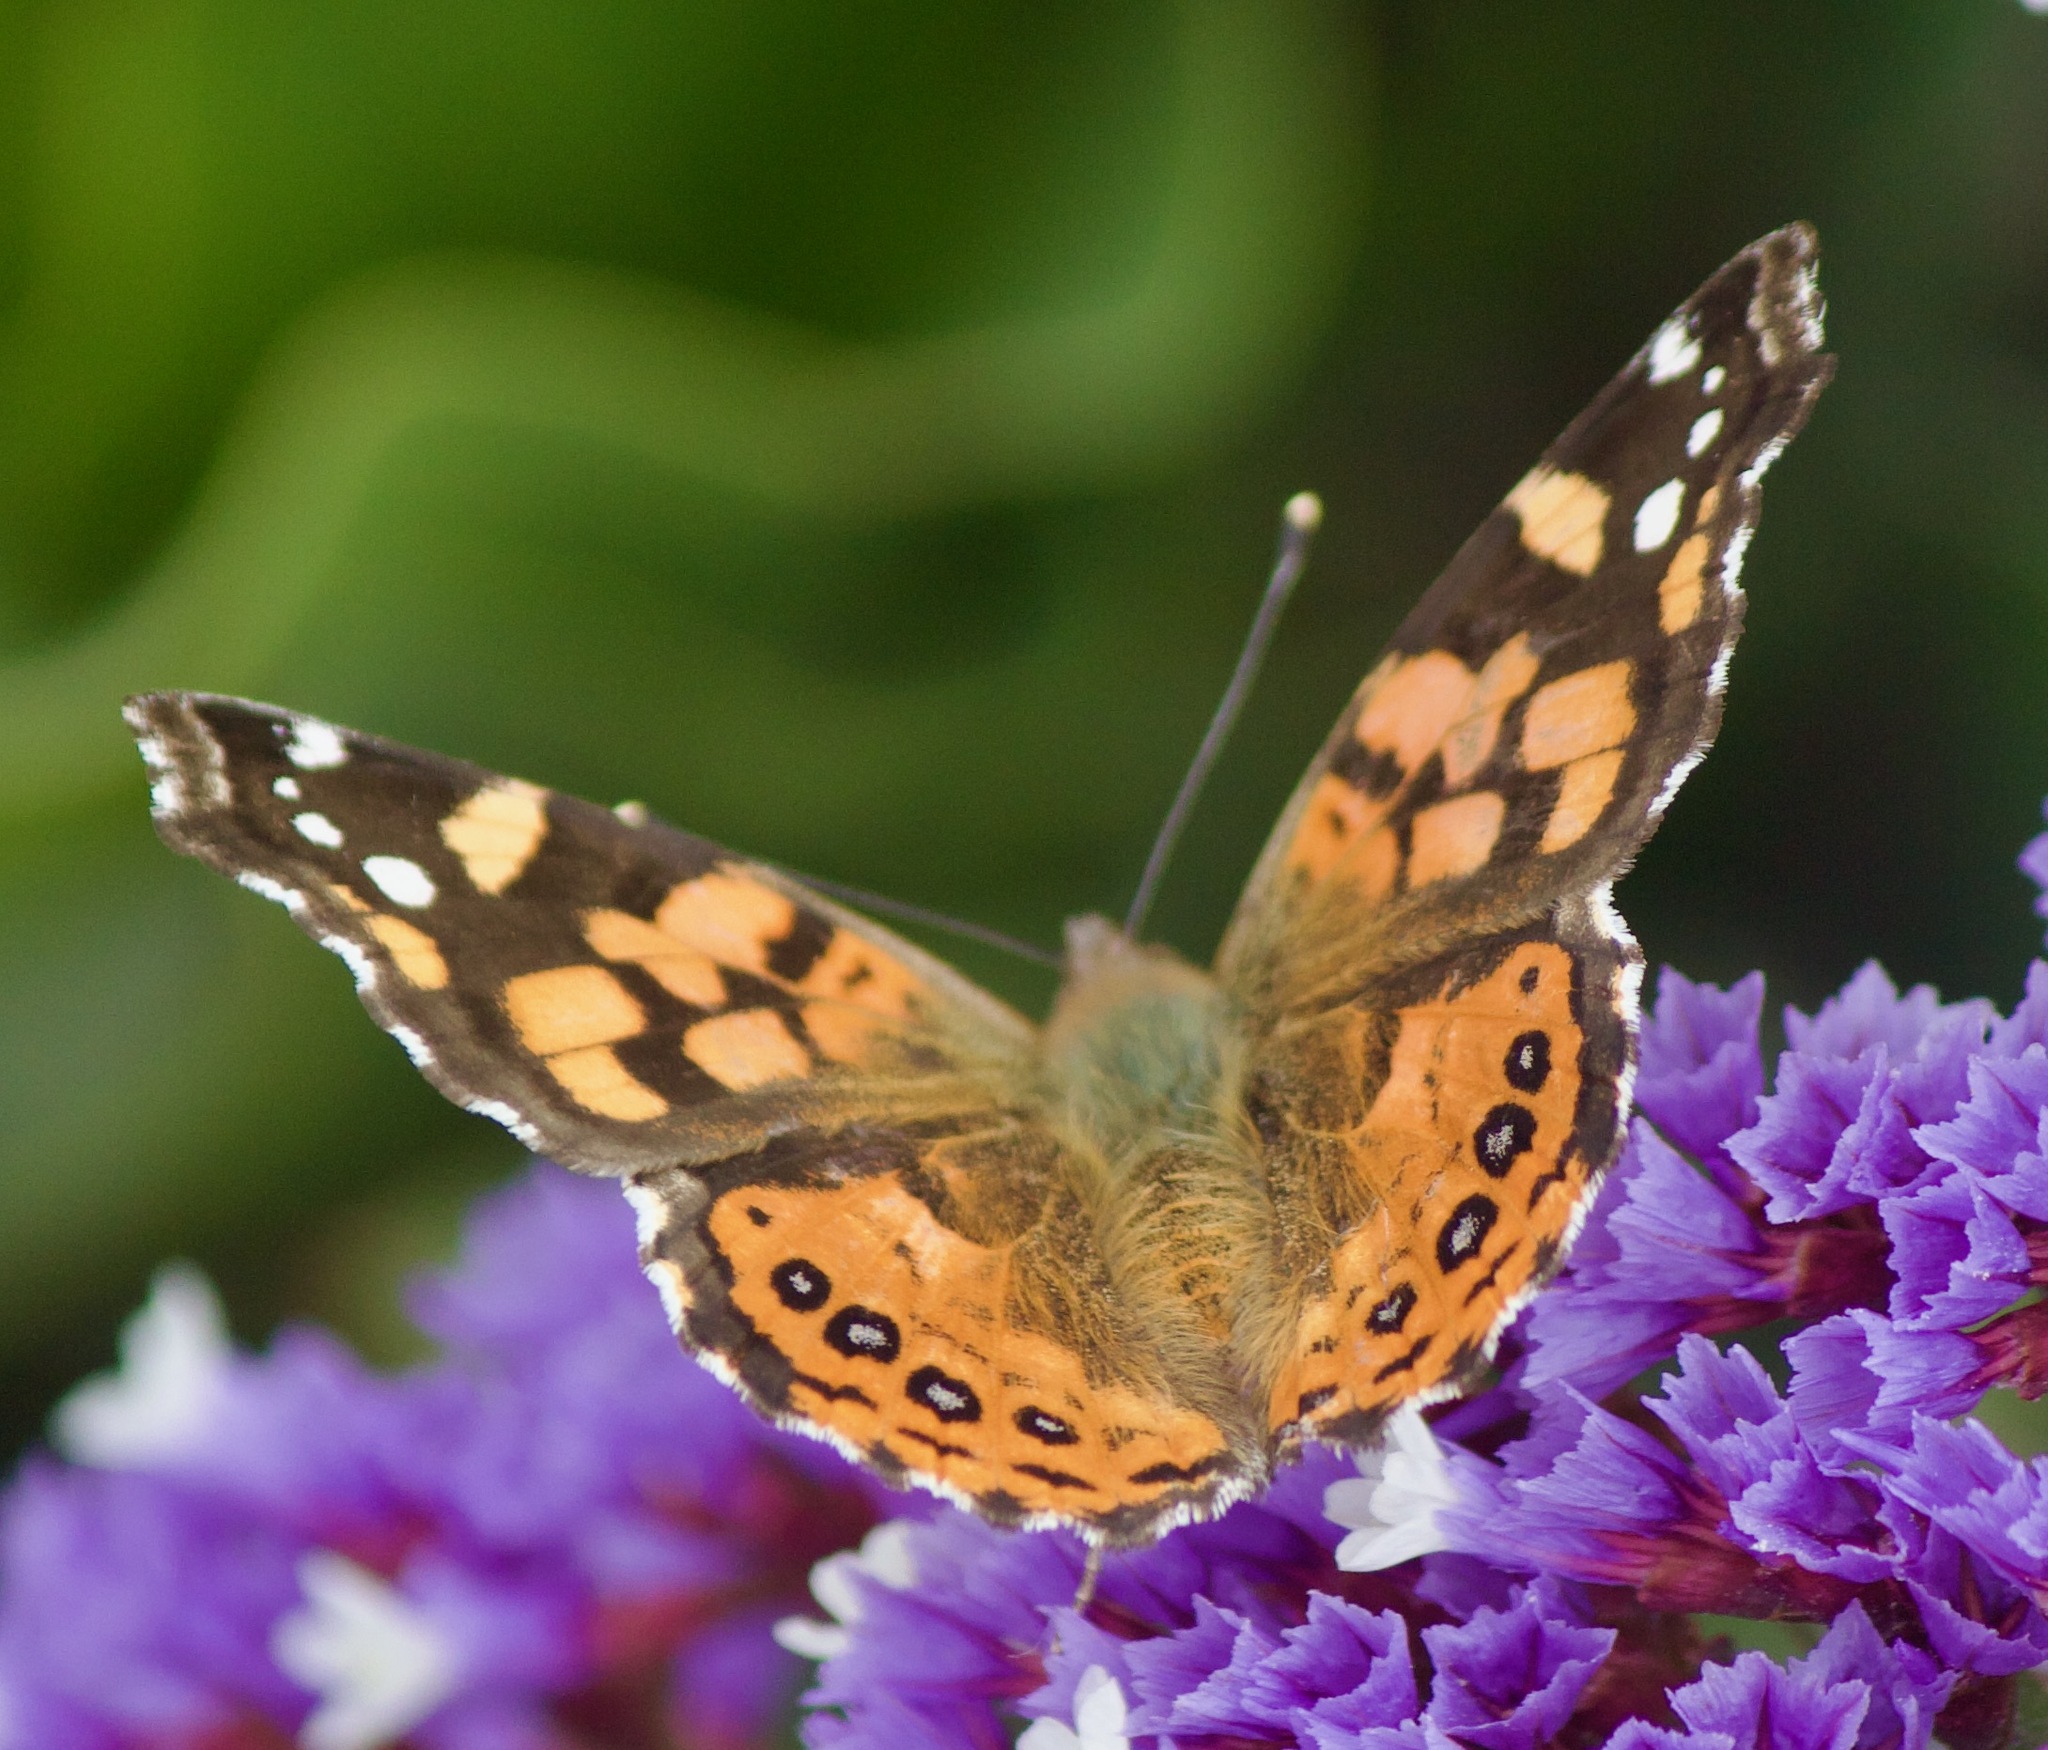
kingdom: Animalia
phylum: Arthropoda
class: Insecta
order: Lepidoptera
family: Nymphalidae
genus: Vanessa
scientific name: Vanessa carye
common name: Subtropical lady
